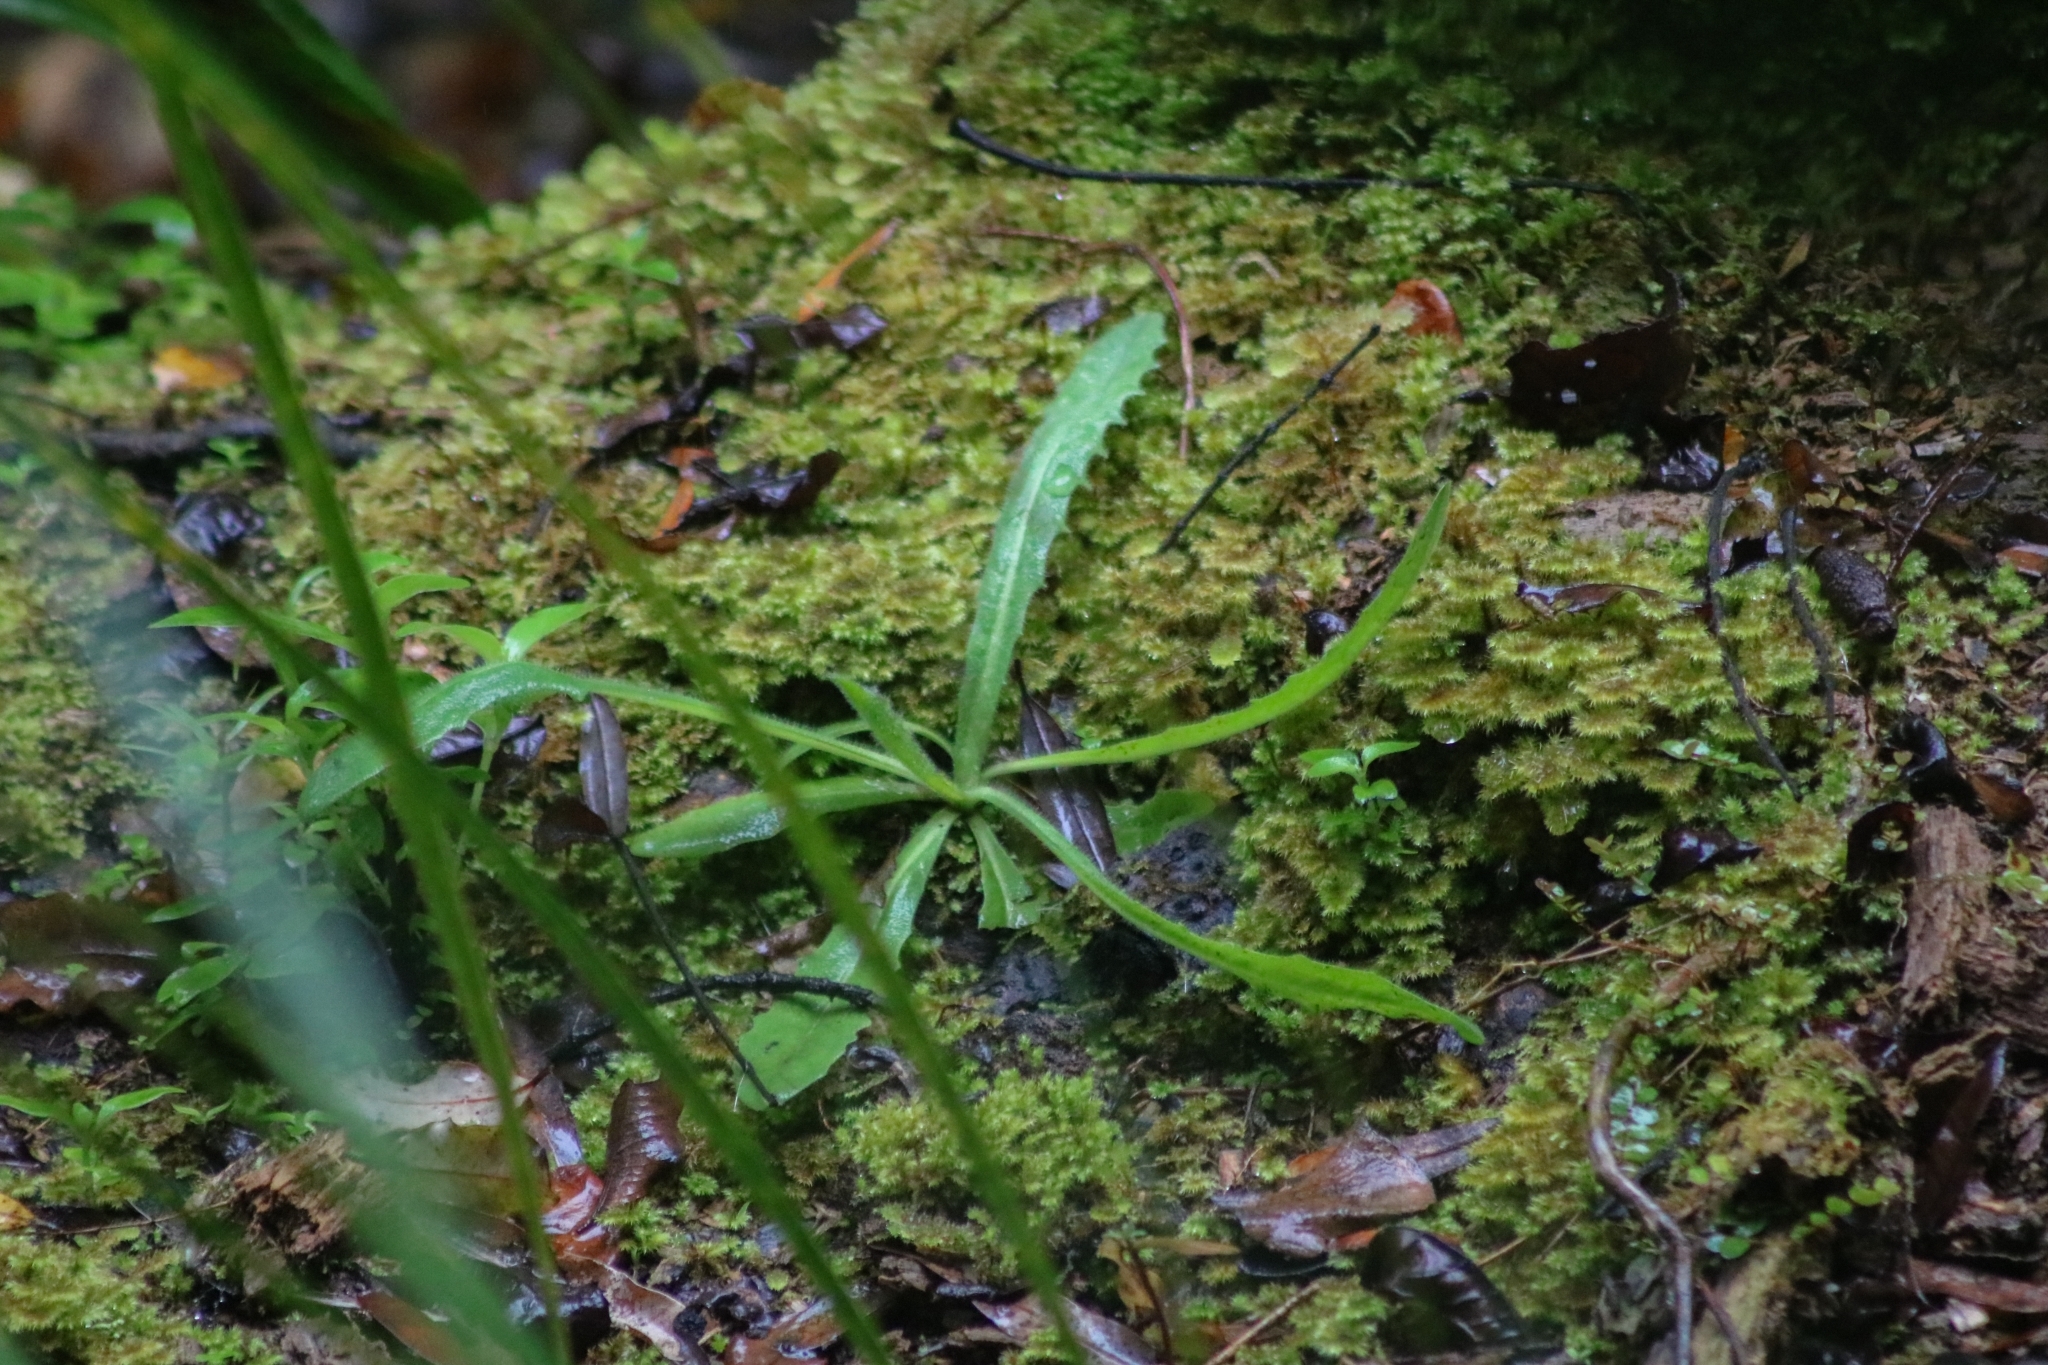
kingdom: Plantae
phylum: Tracheophyta
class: Magnoliopsida
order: Asterales
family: Asteraceae
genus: Hypochaeris
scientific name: Hypochaeris radicata
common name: Flatweed
